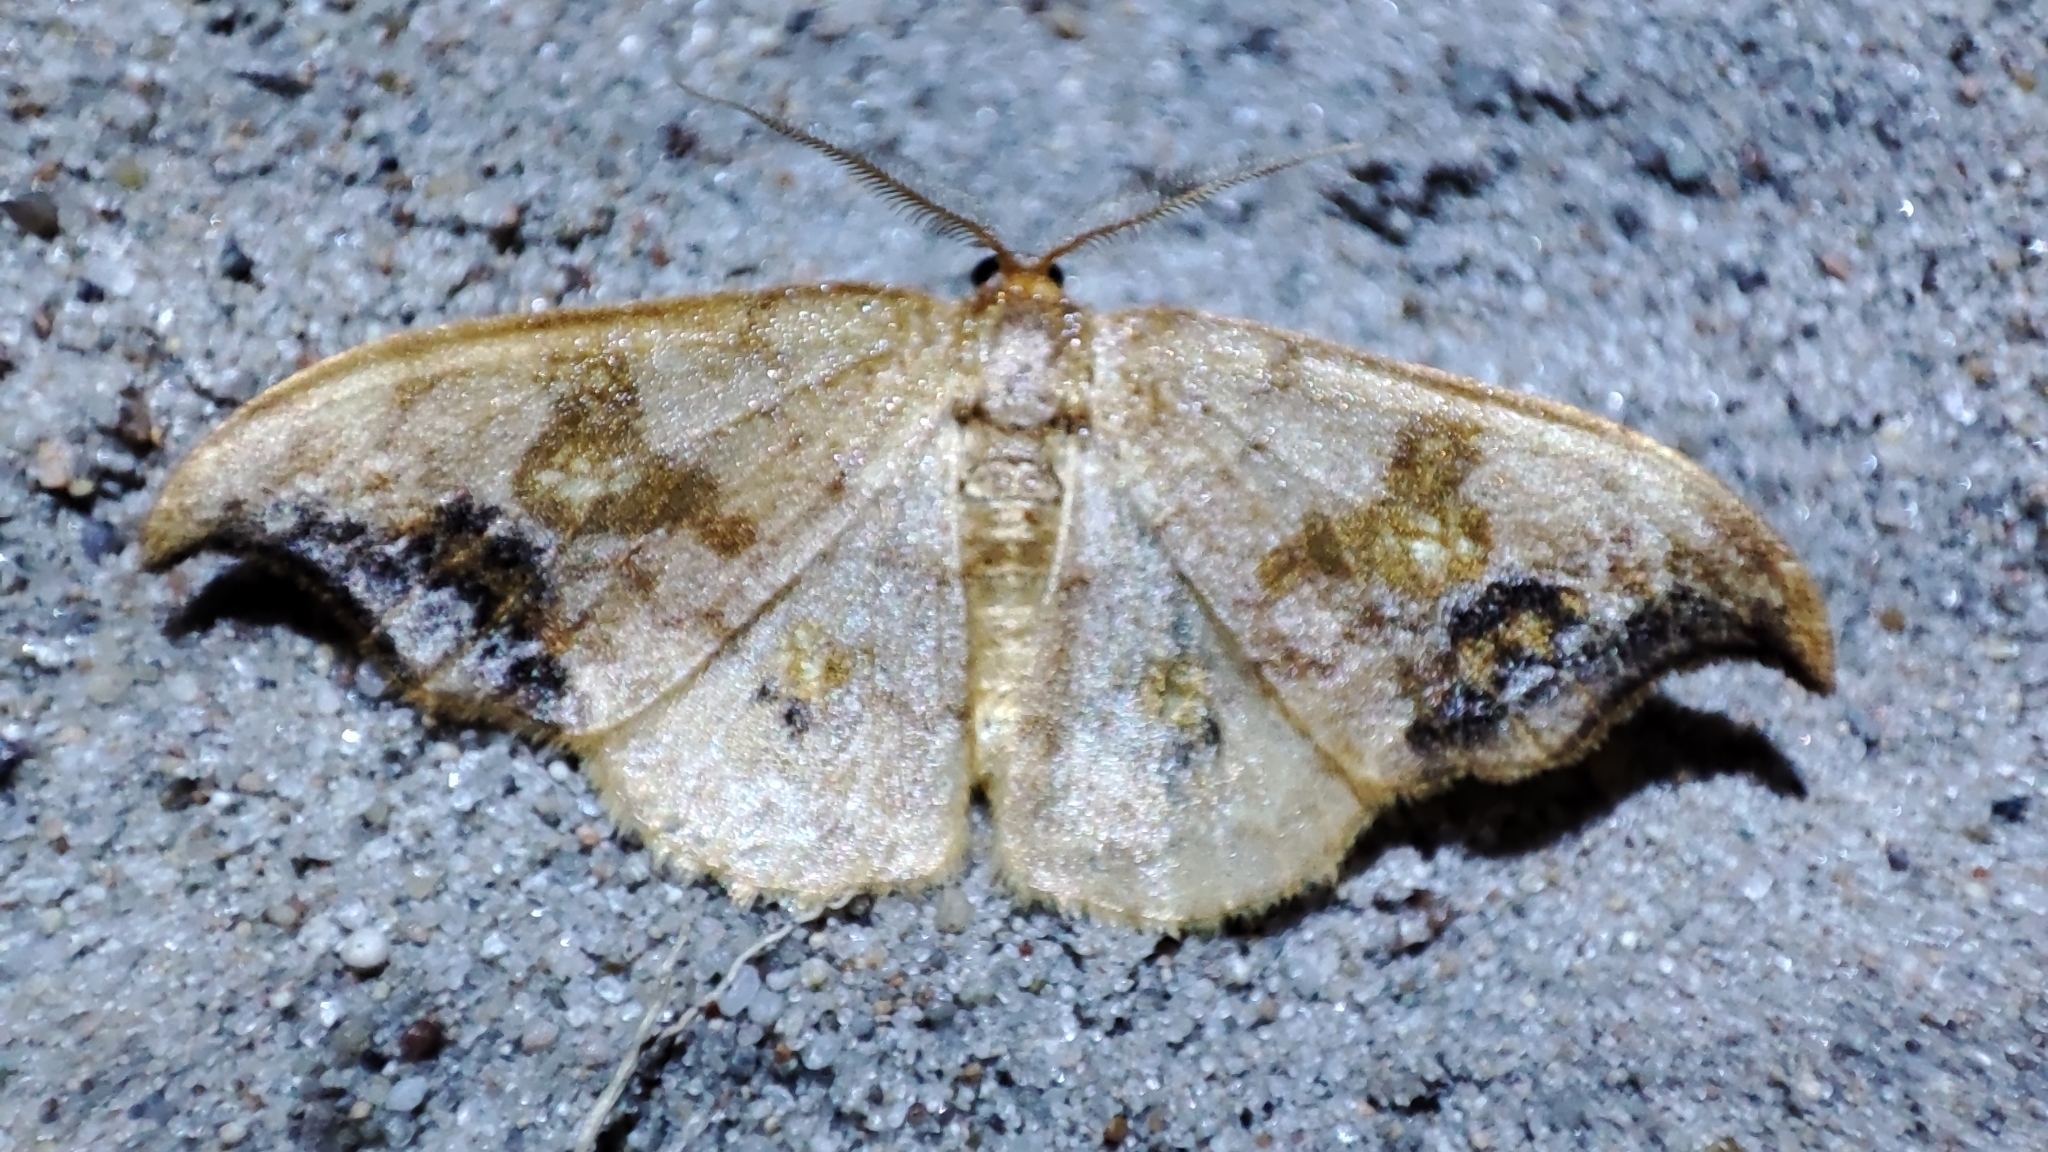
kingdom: Animalia
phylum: Arthropoda
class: Insecta
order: Lepidoptera
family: Drepanidae
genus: Sabra
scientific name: Sabra harpagula
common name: Scarce hook-tip
